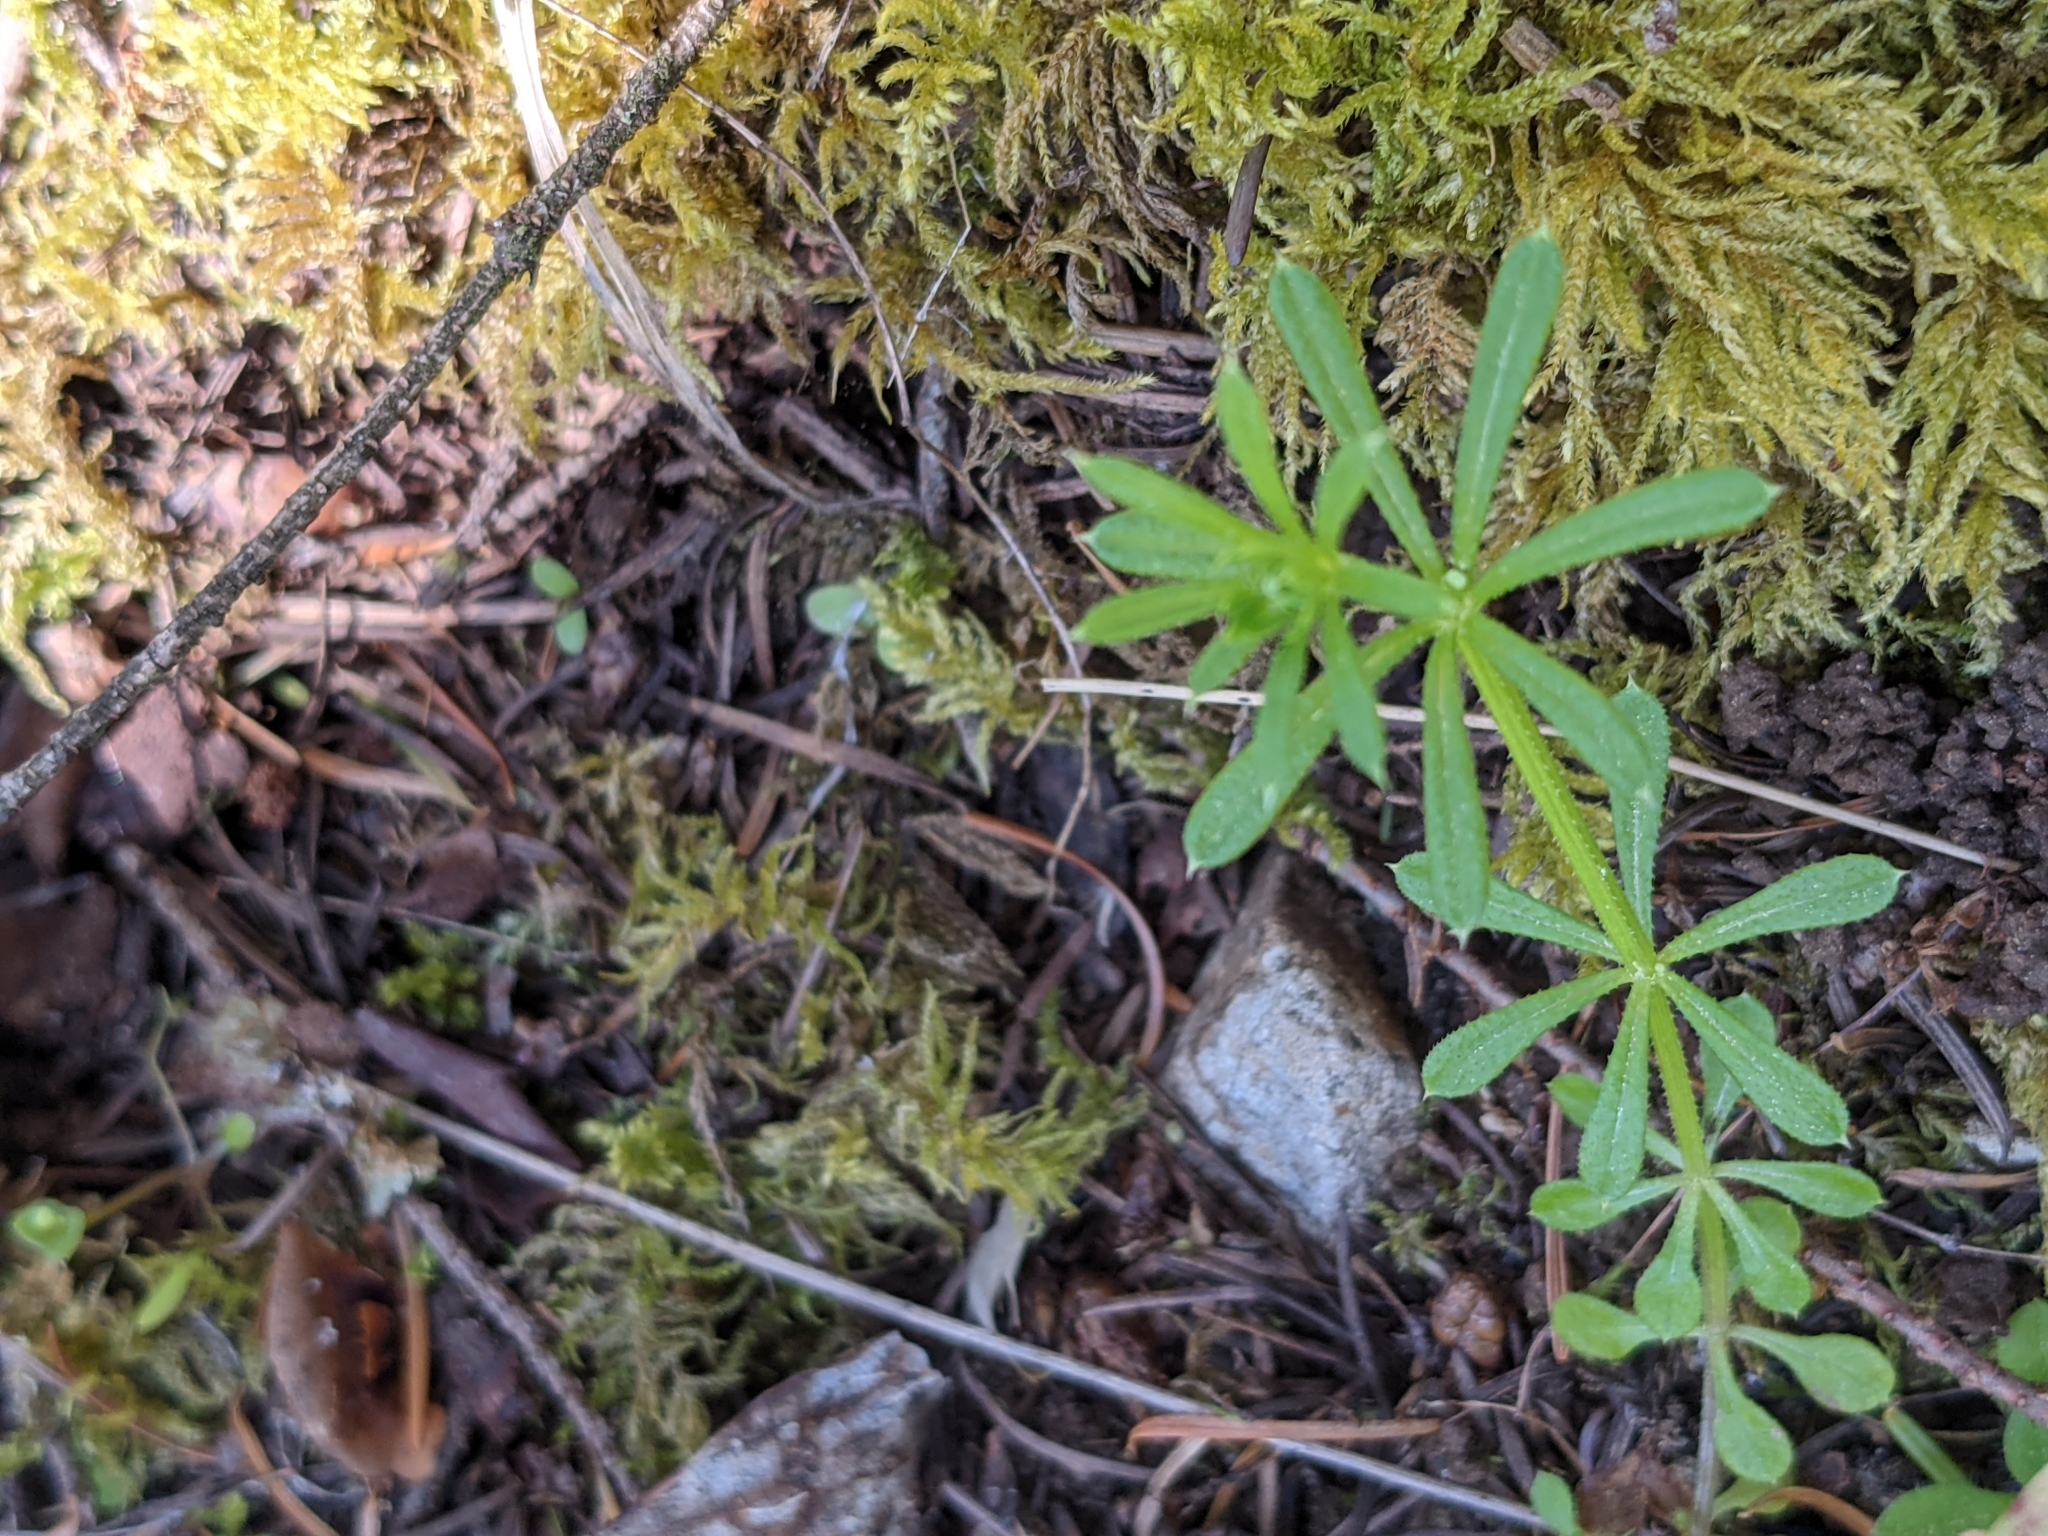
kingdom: Plantae
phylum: Tracheophyta
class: Magnoliopsida
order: Gentianales
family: Rubiaceae
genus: Galium
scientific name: Galium aparine
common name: Cleavers
